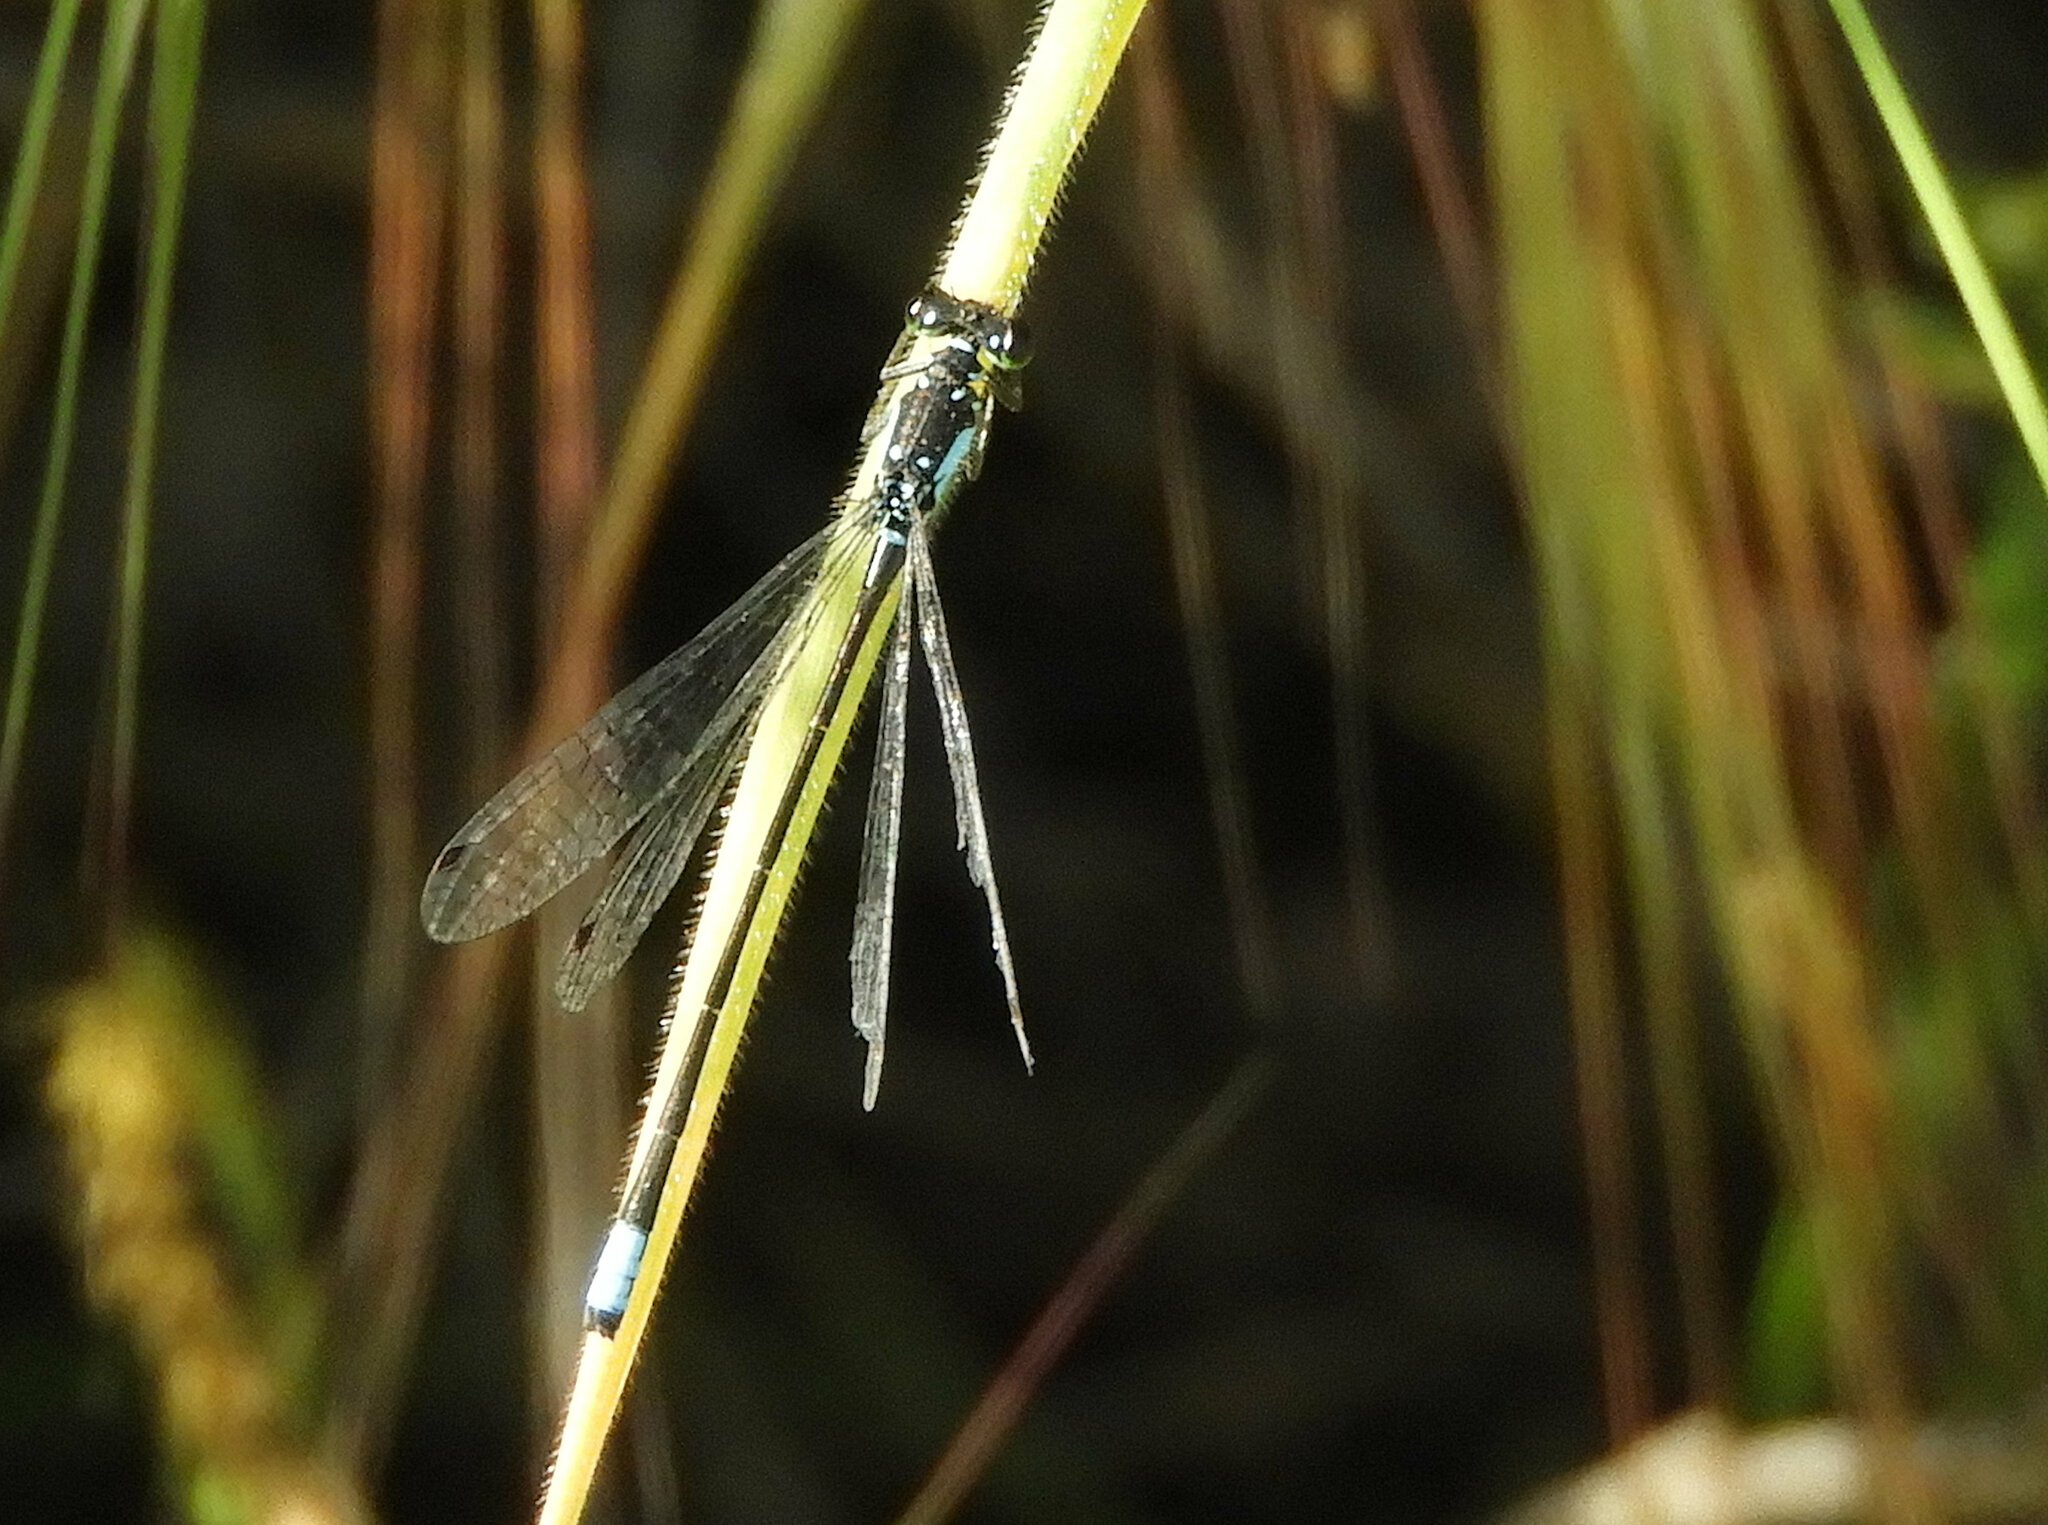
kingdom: Animalia
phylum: Arthropoda
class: Insecta
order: Odonata
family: Coenagrionidae
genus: Ischnura
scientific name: Ischnura cervula
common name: Pacific forktail
